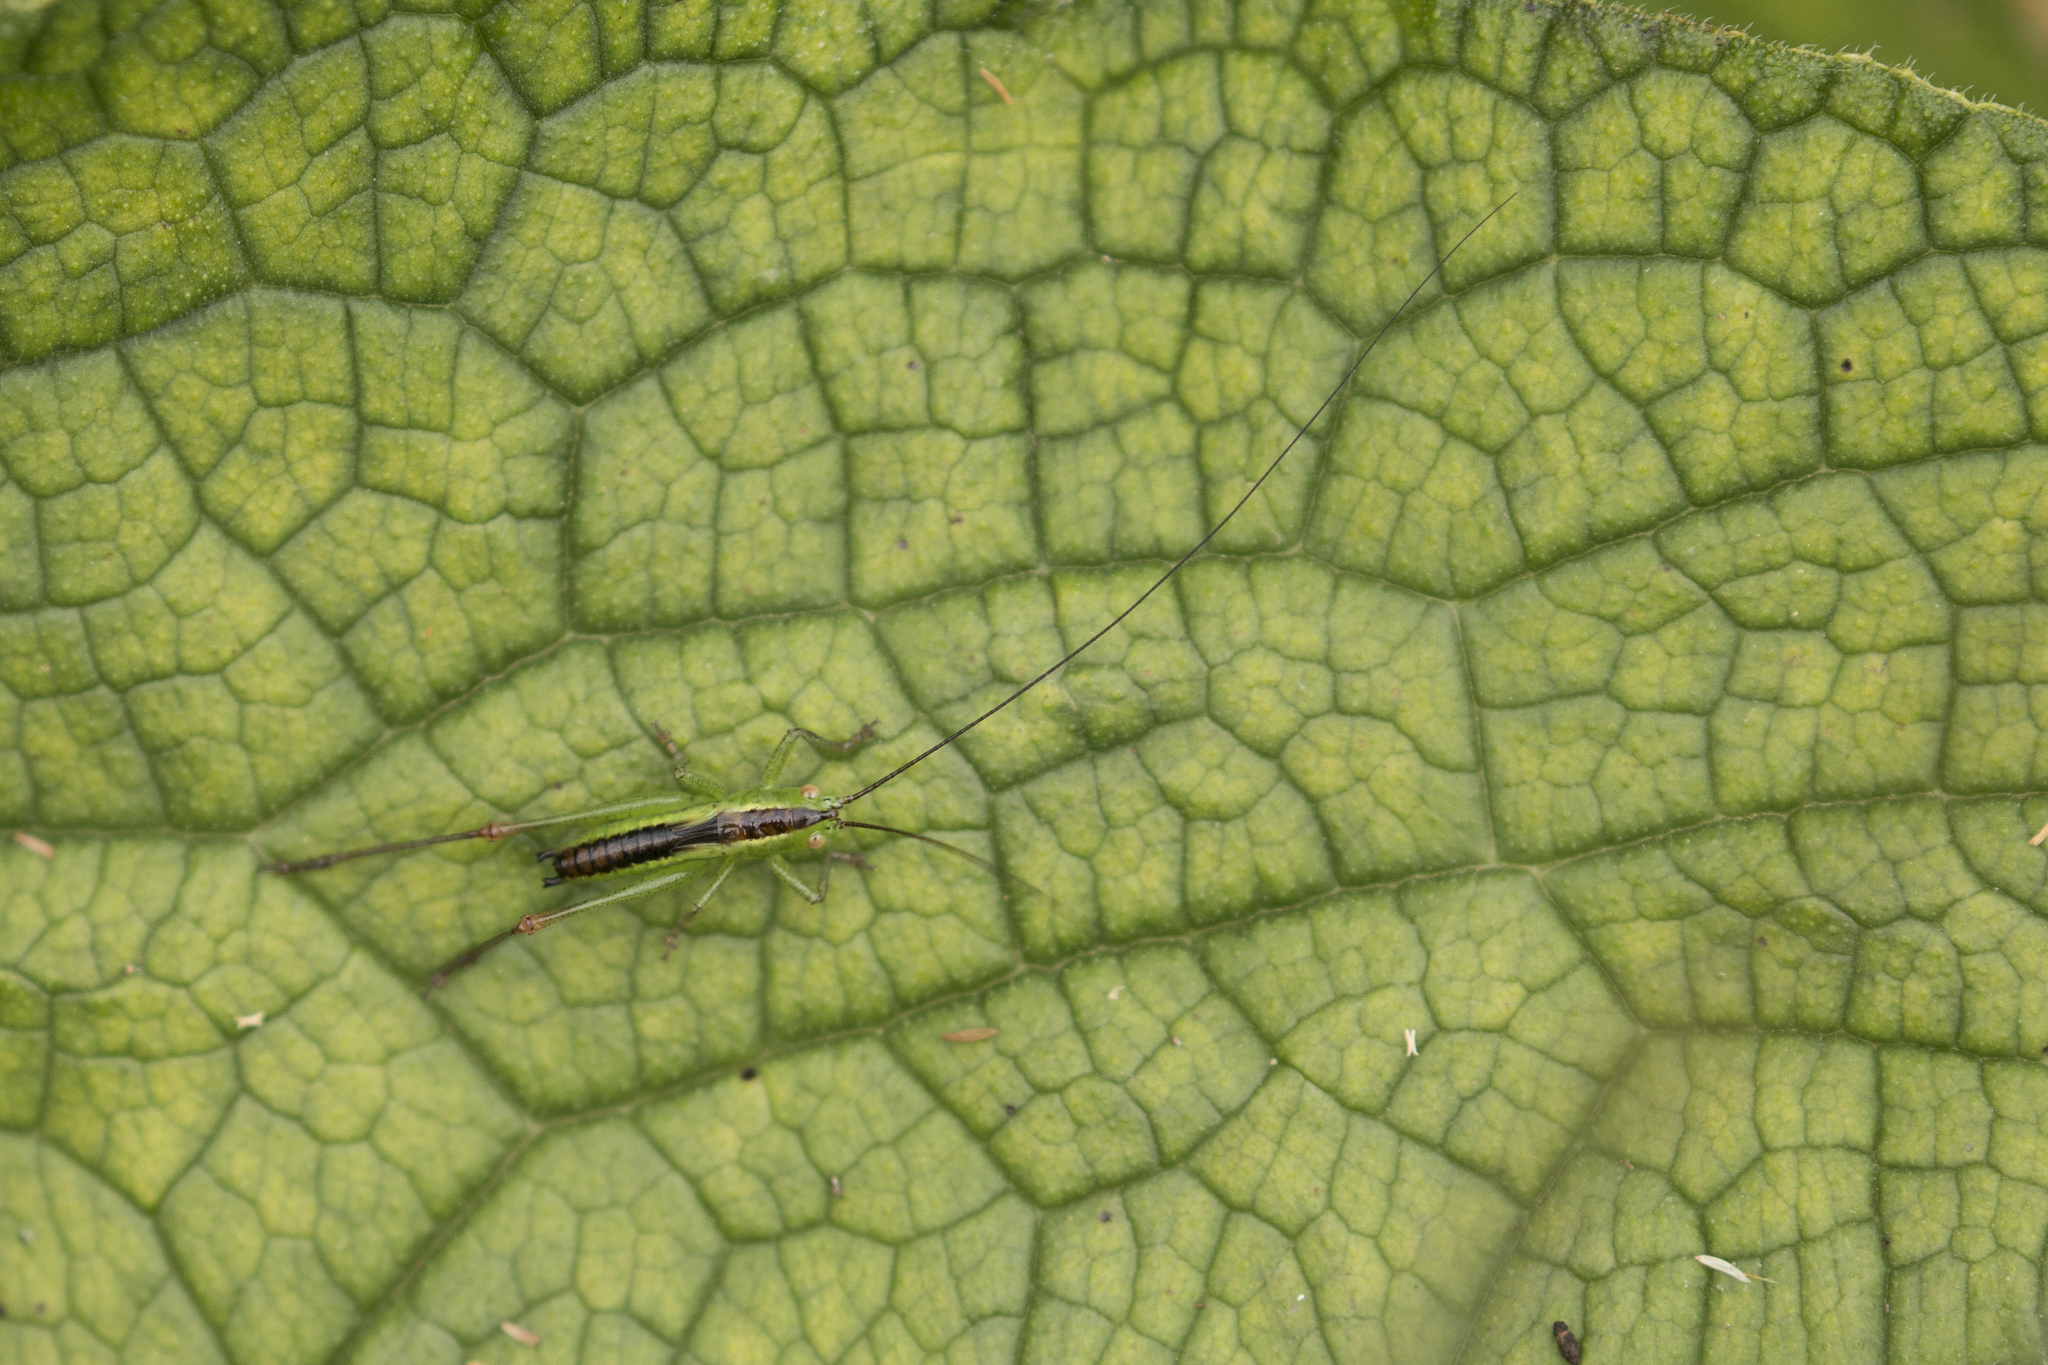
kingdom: Animalia
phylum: Arthropoda
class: Insecta
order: Orthoptera
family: Tettigoniidae
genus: Conocephalus
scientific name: Conocephalus dorsalis
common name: Short-winged conehead
